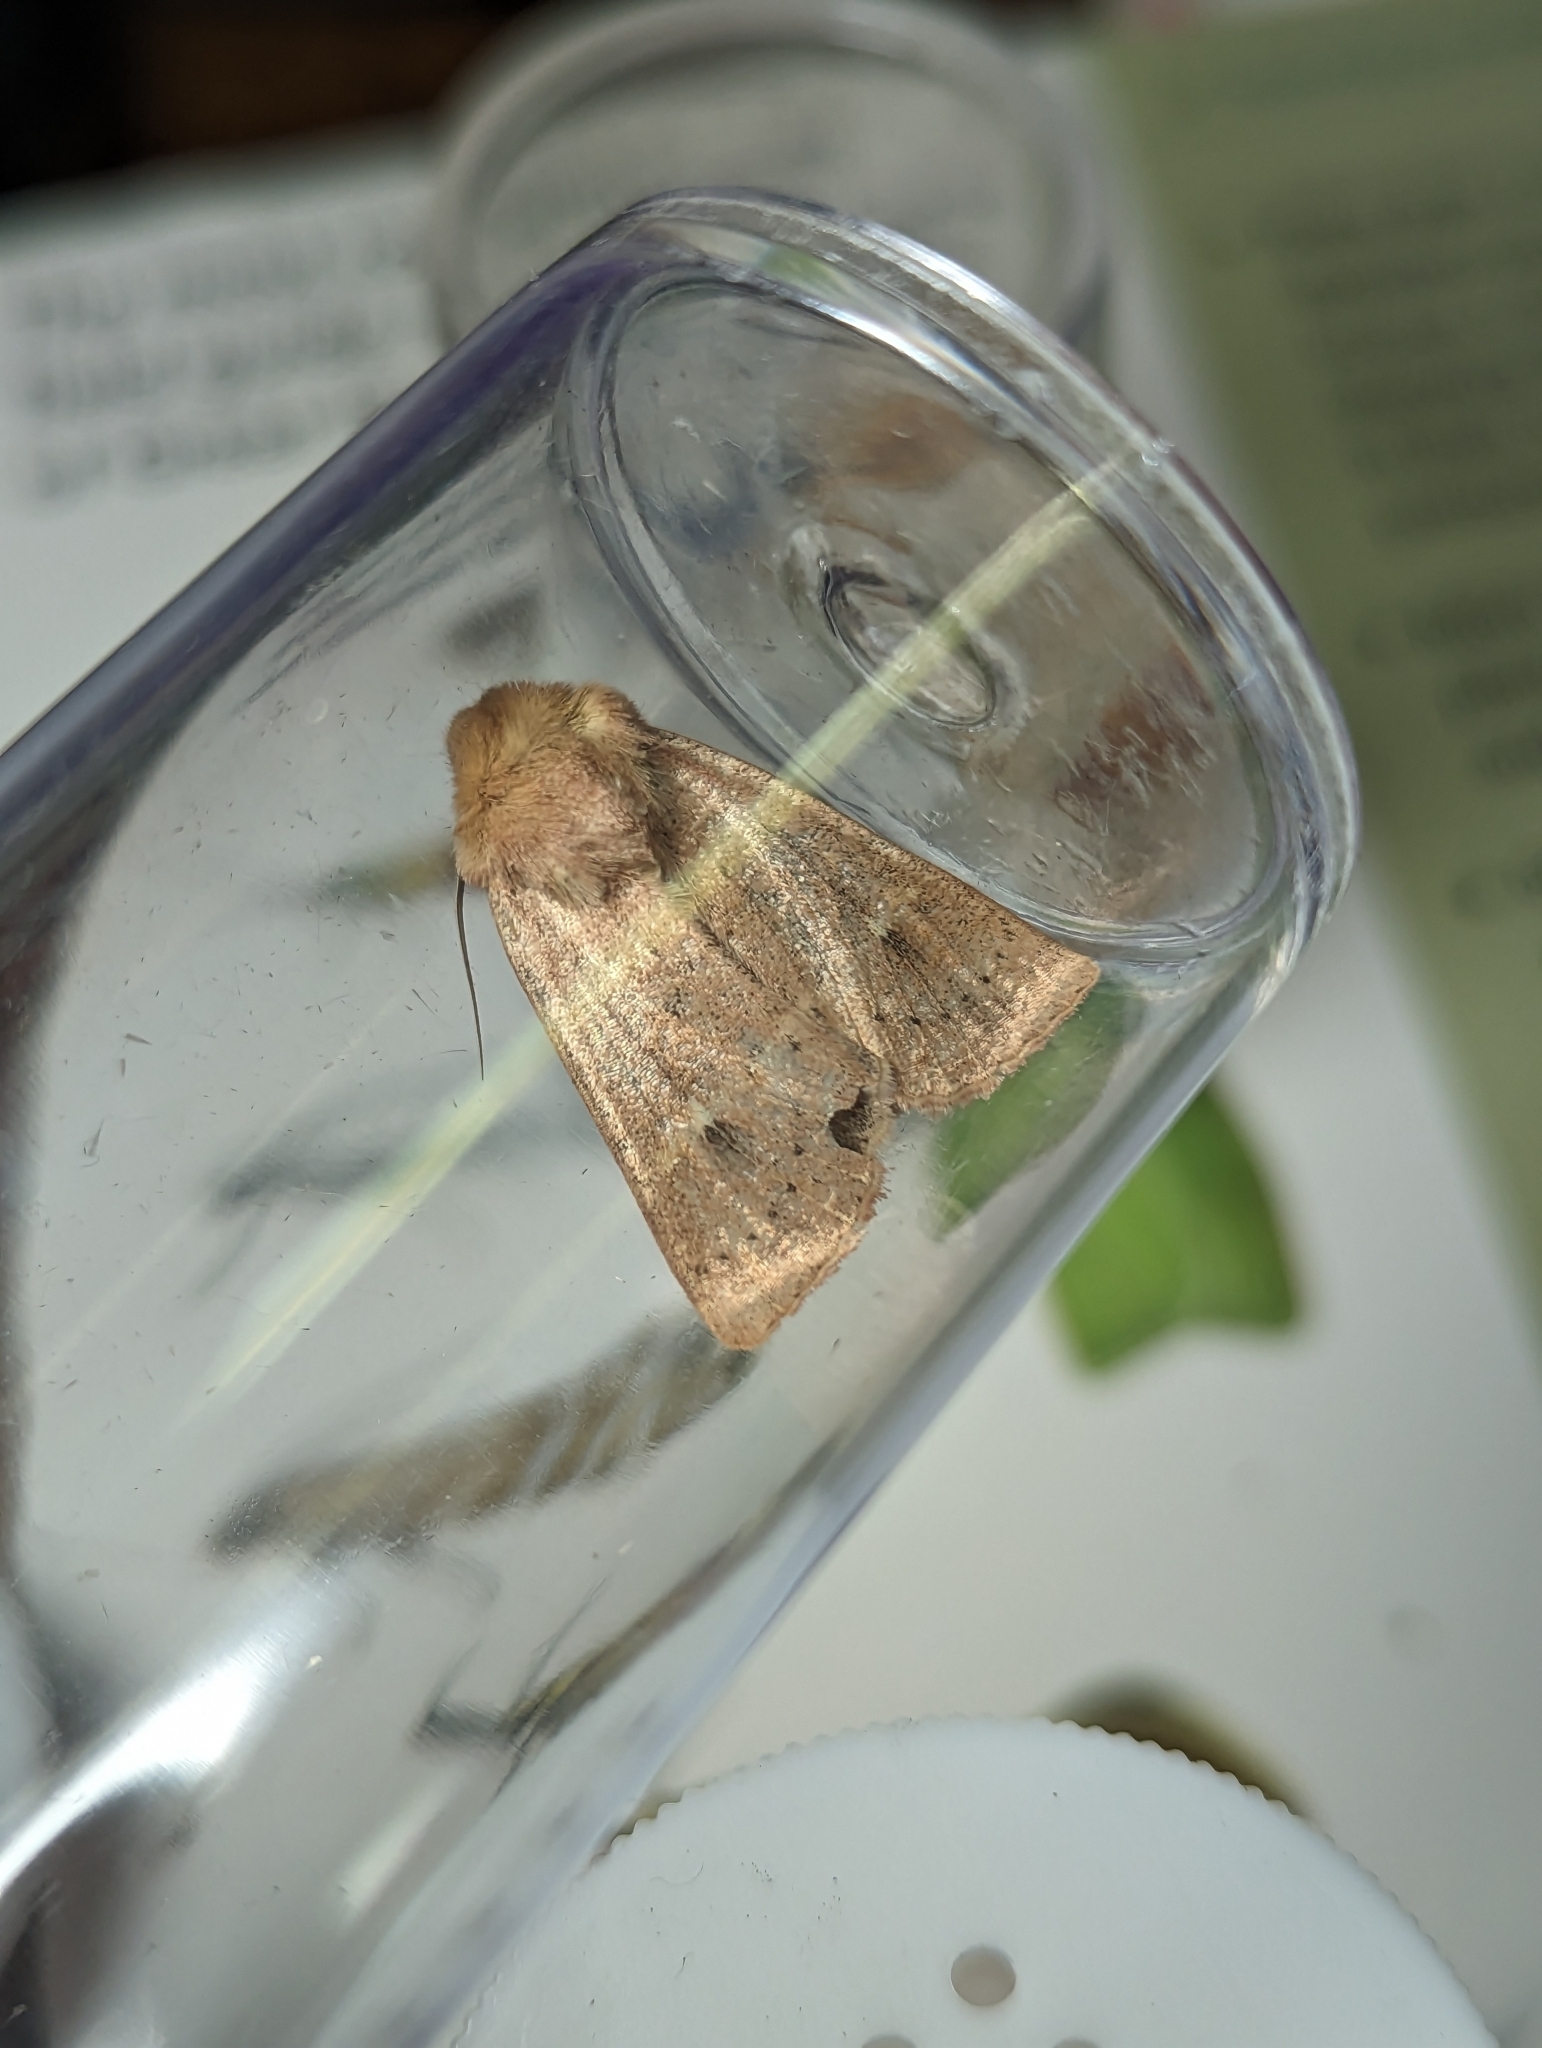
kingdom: Animalia
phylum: Arthropoda
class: Insecta
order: Lepidoptera
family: Noctuidae
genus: Mythimna
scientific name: Mythimna ferrago
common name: Clay
